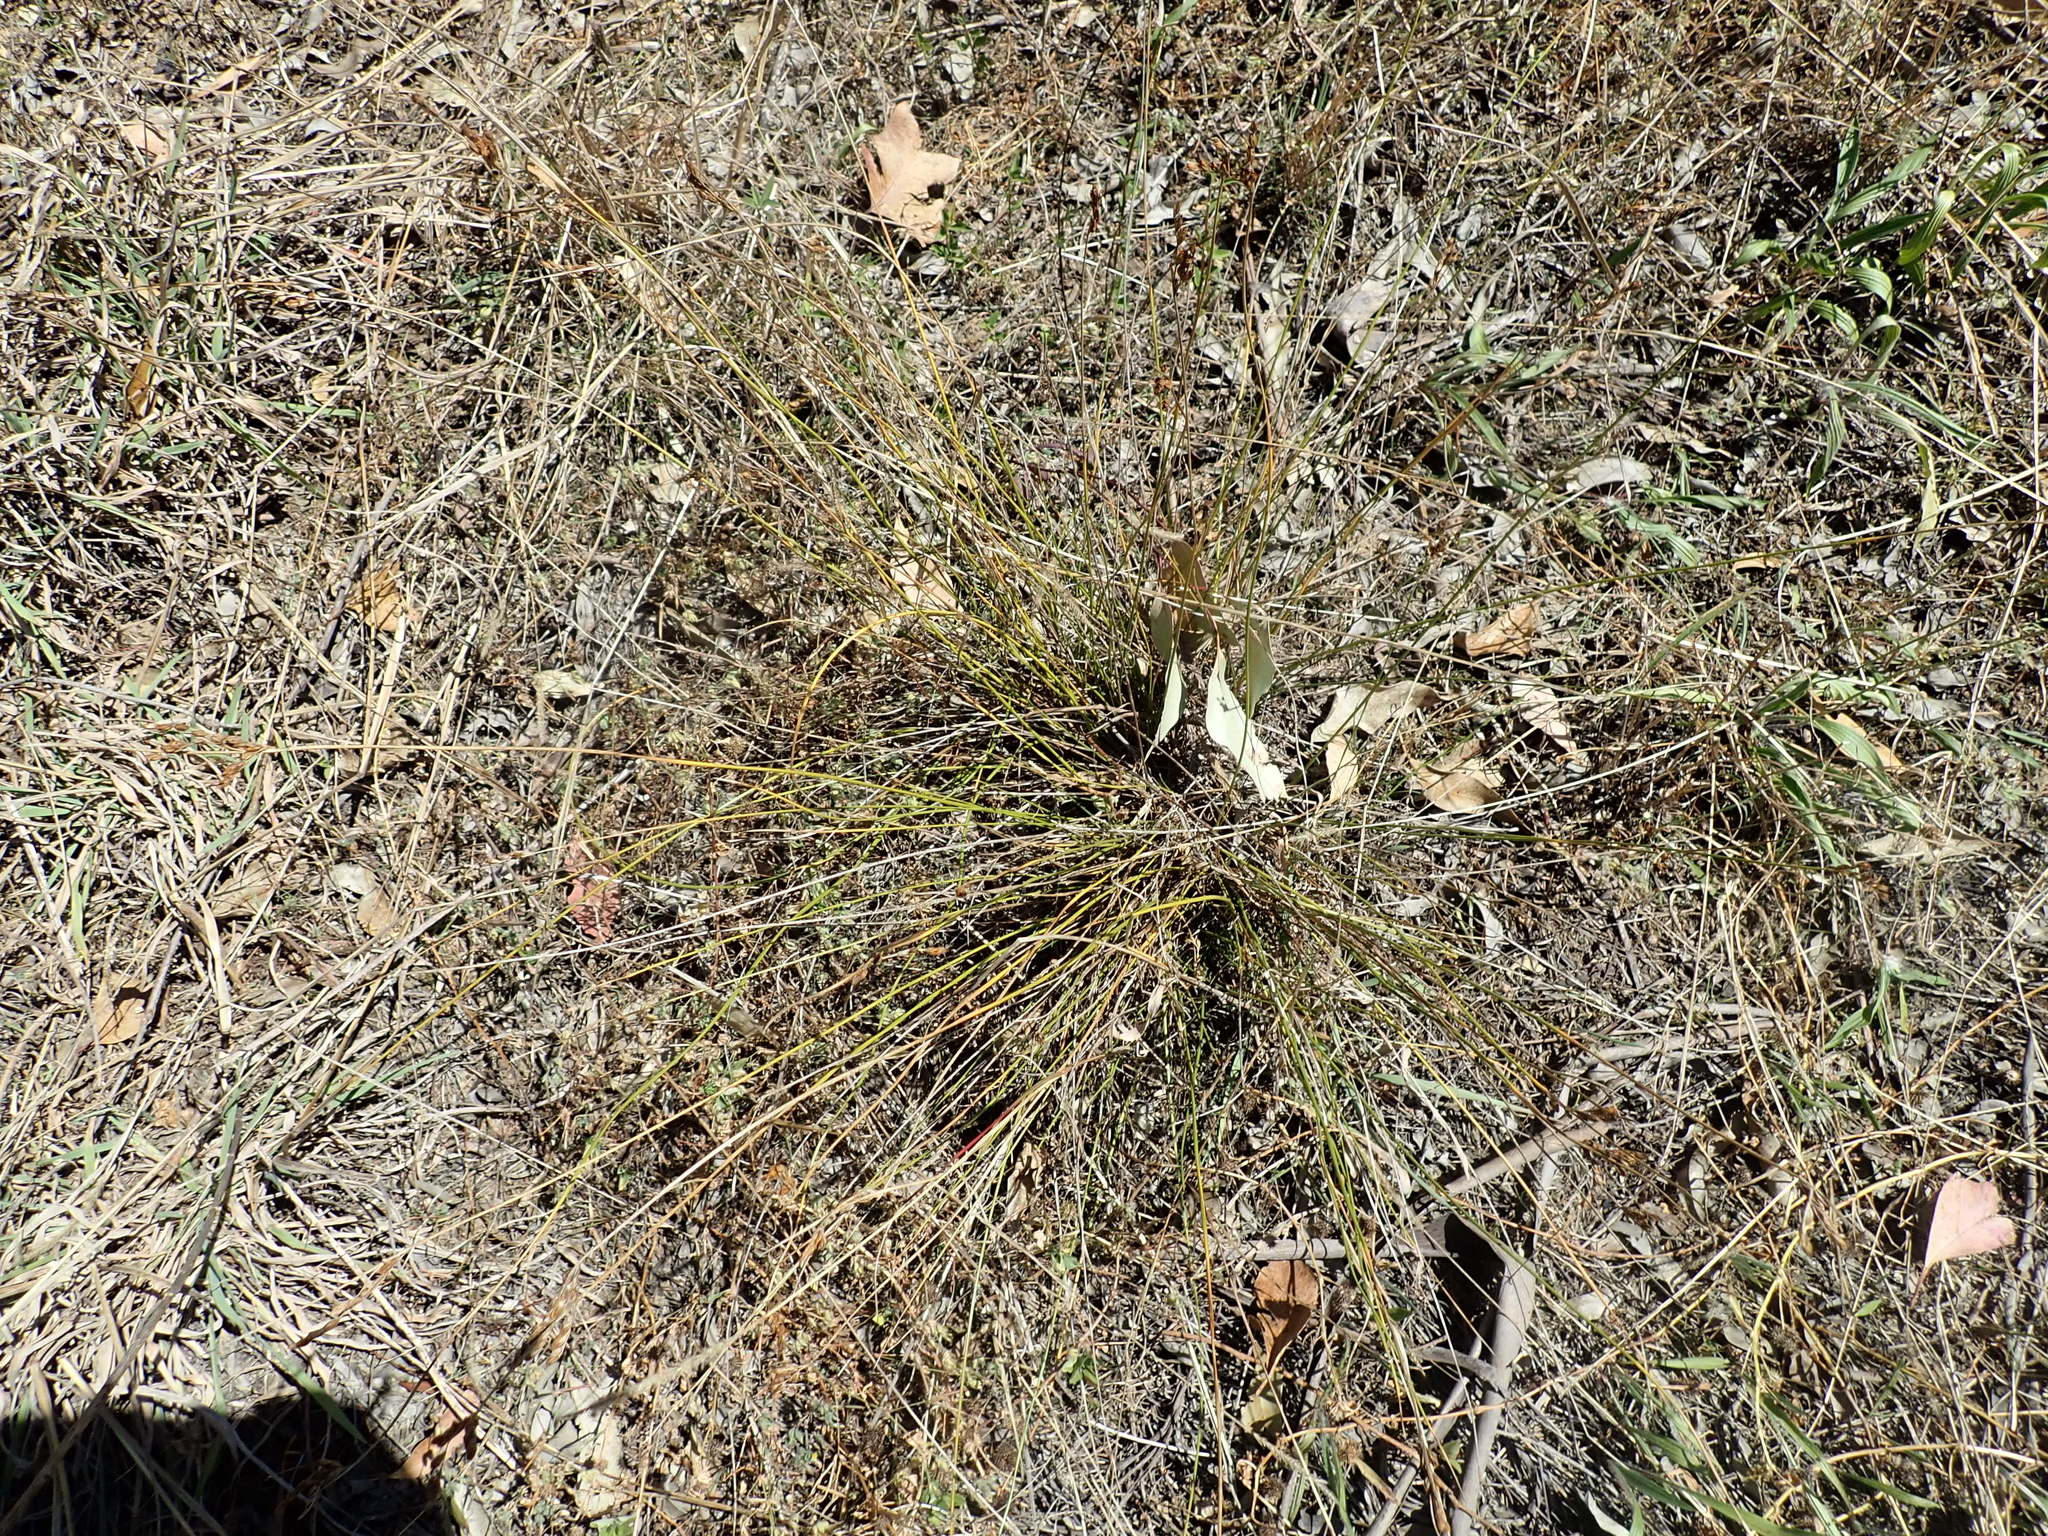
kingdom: Plantae
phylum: Tracheophyta
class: Liliopsida
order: Poales
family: Juncaceae
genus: Juncus
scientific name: Juncus imbricatus
